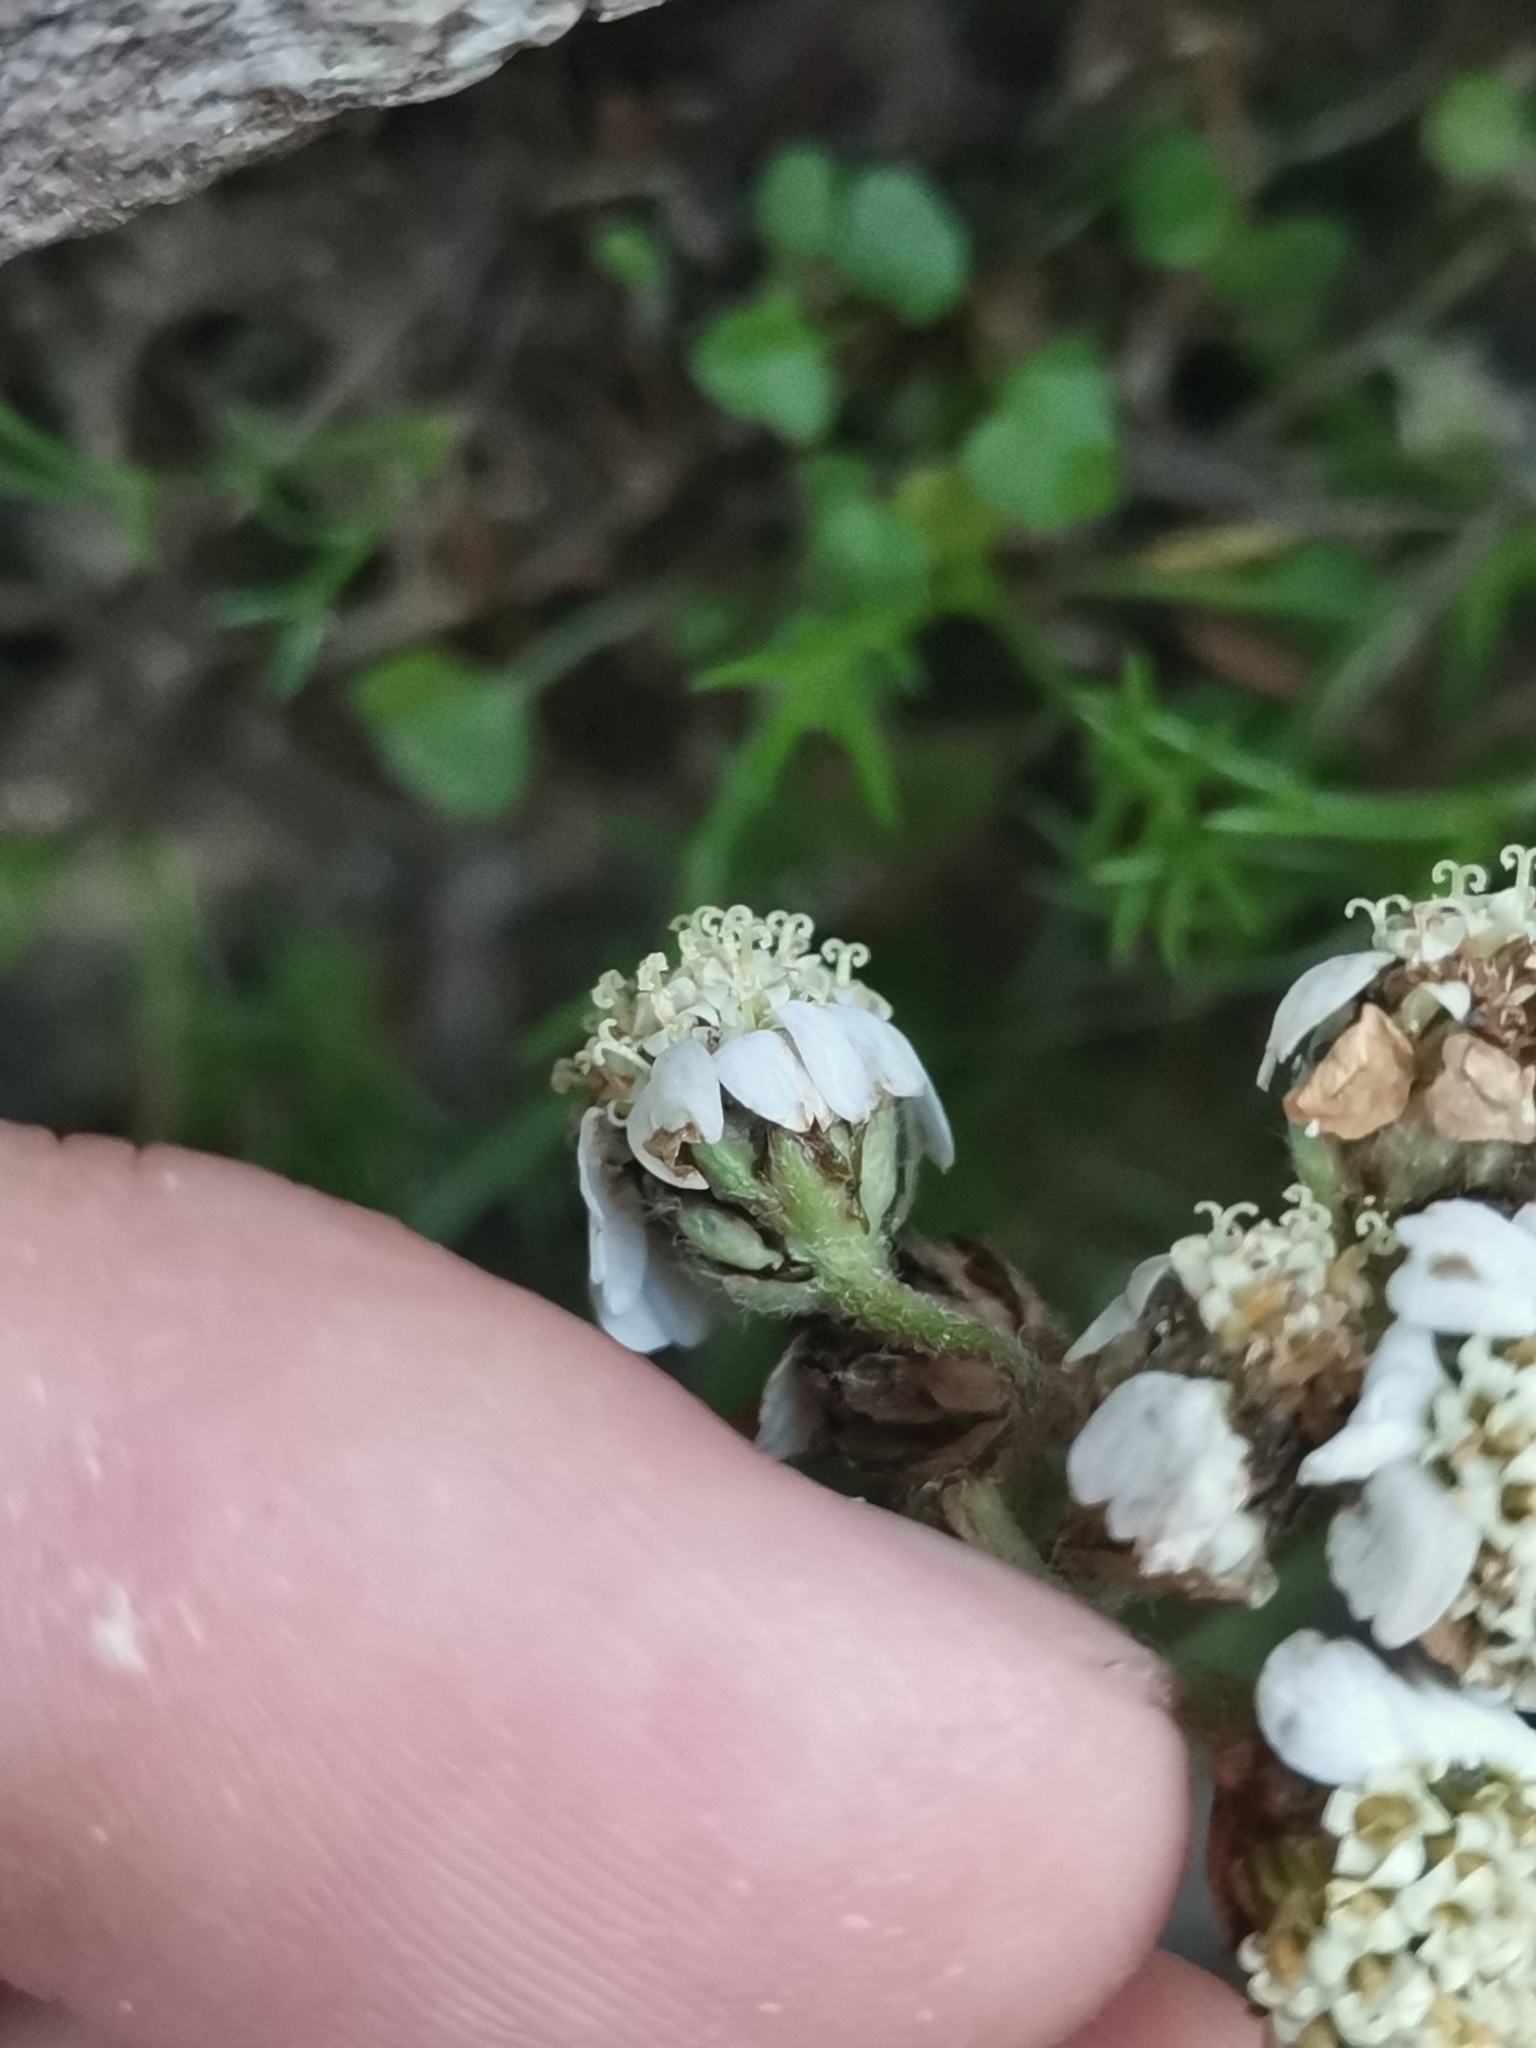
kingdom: Plantae
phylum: Tracheophyta
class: Magnoliopsida
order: Asterales
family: Asteraceae
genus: Achillea
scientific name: Achillea atrata
